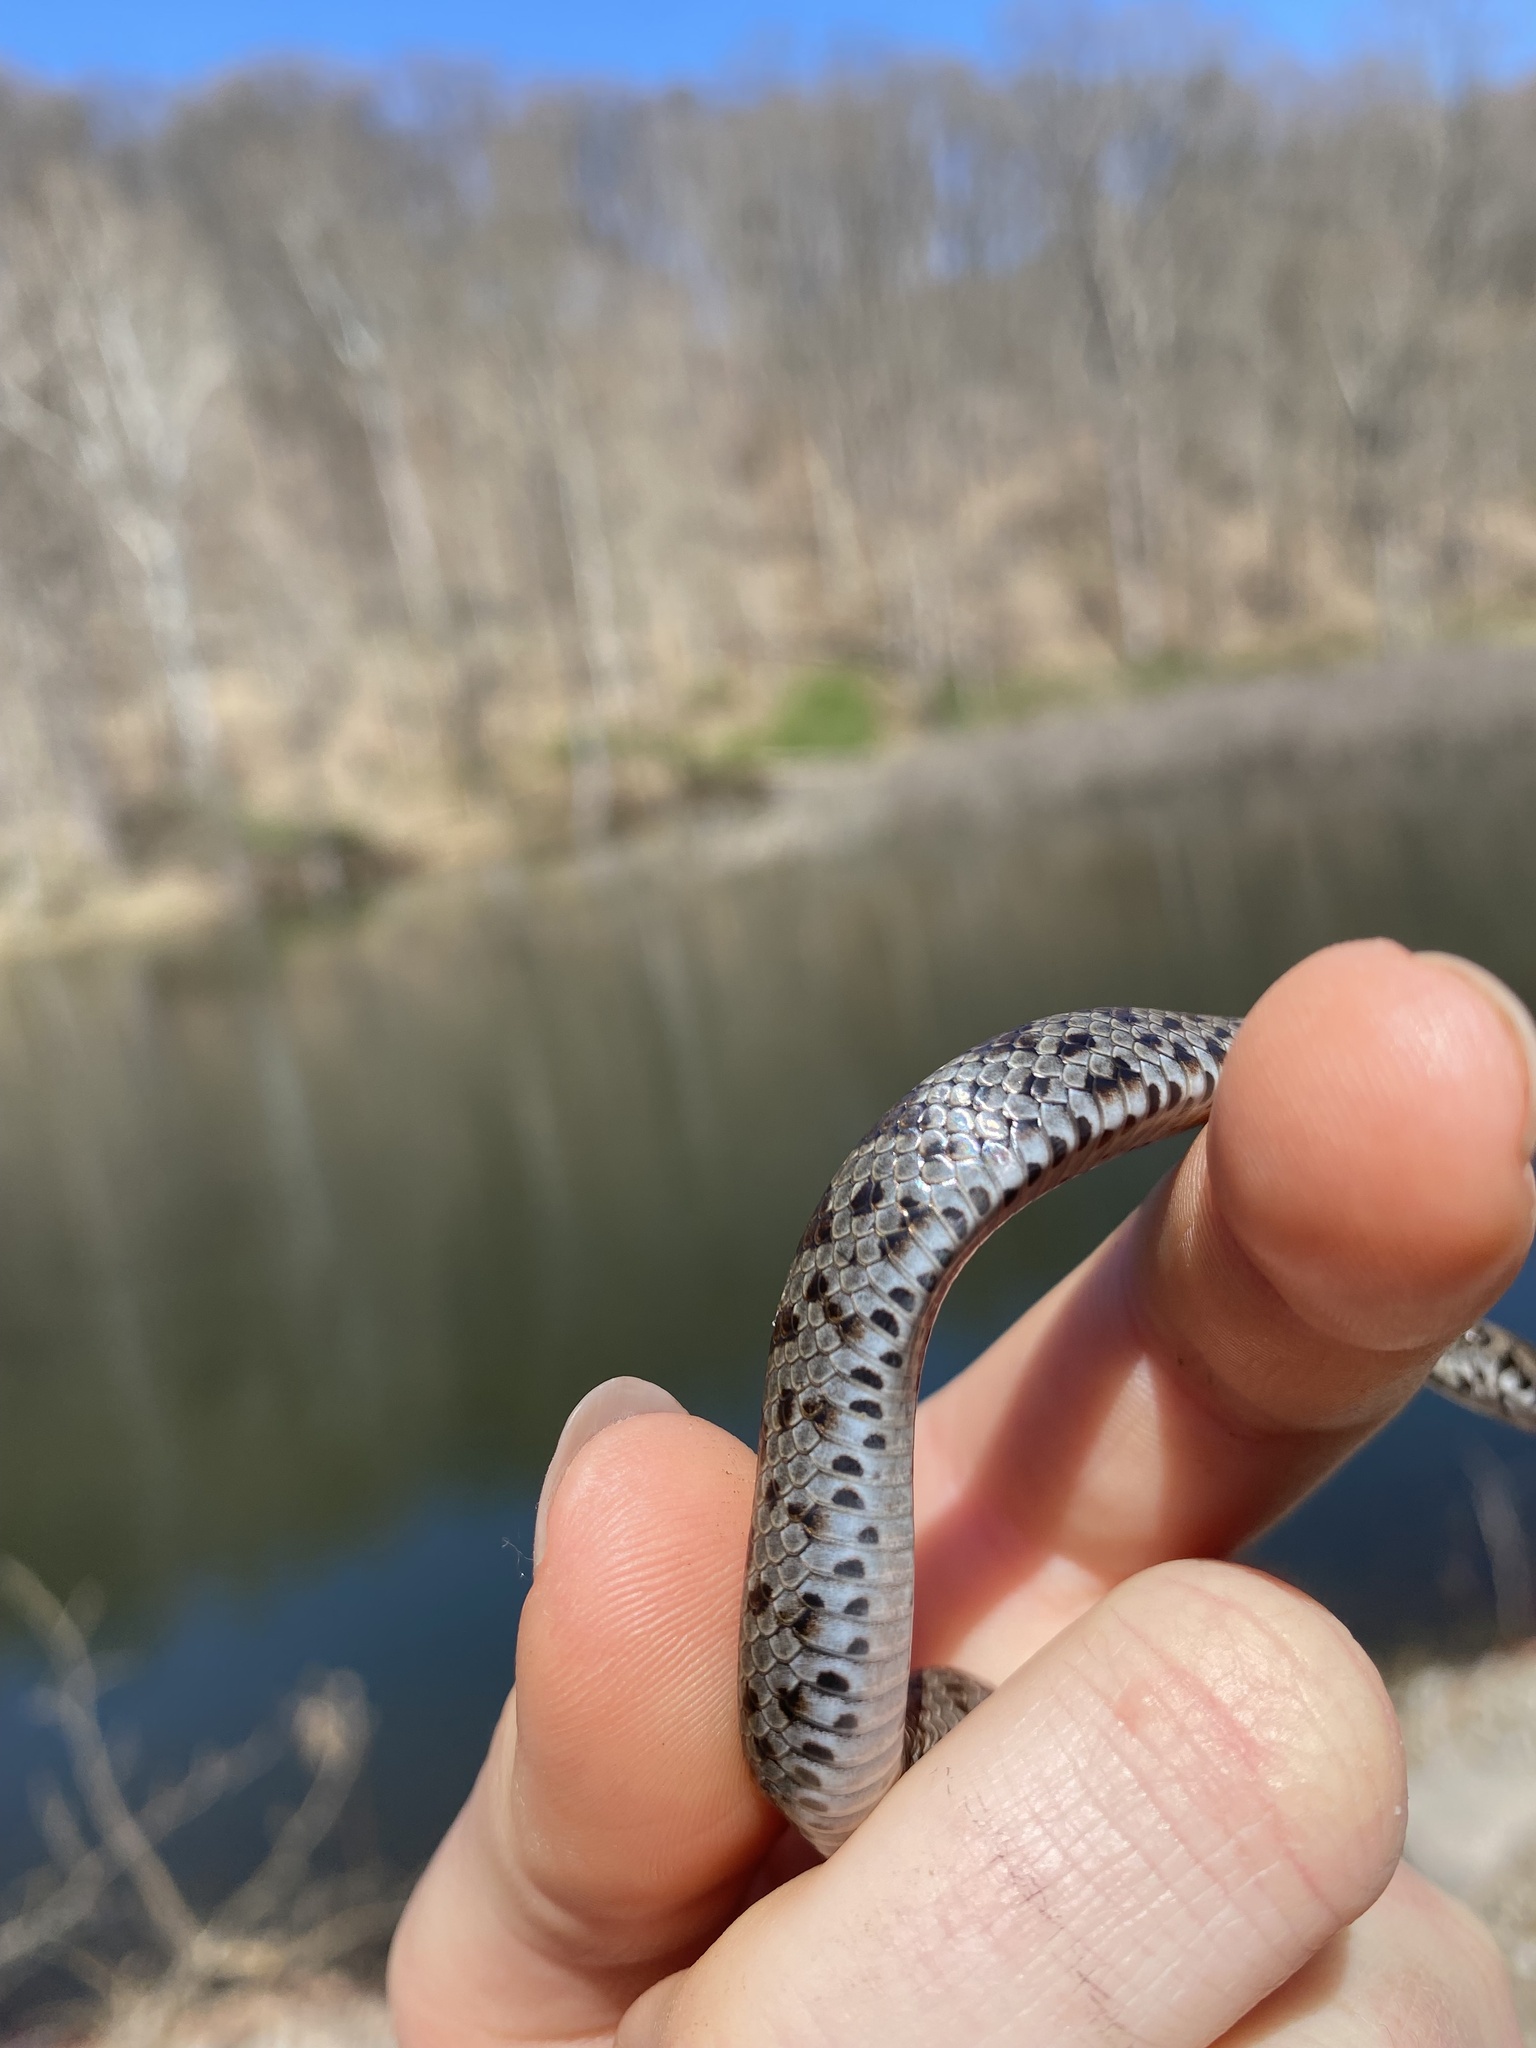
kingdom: Animalia
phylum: Chordata
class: Squamata
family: Colubridae
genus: Coluber
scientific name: Coluber constrictor
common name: Eastern racer
